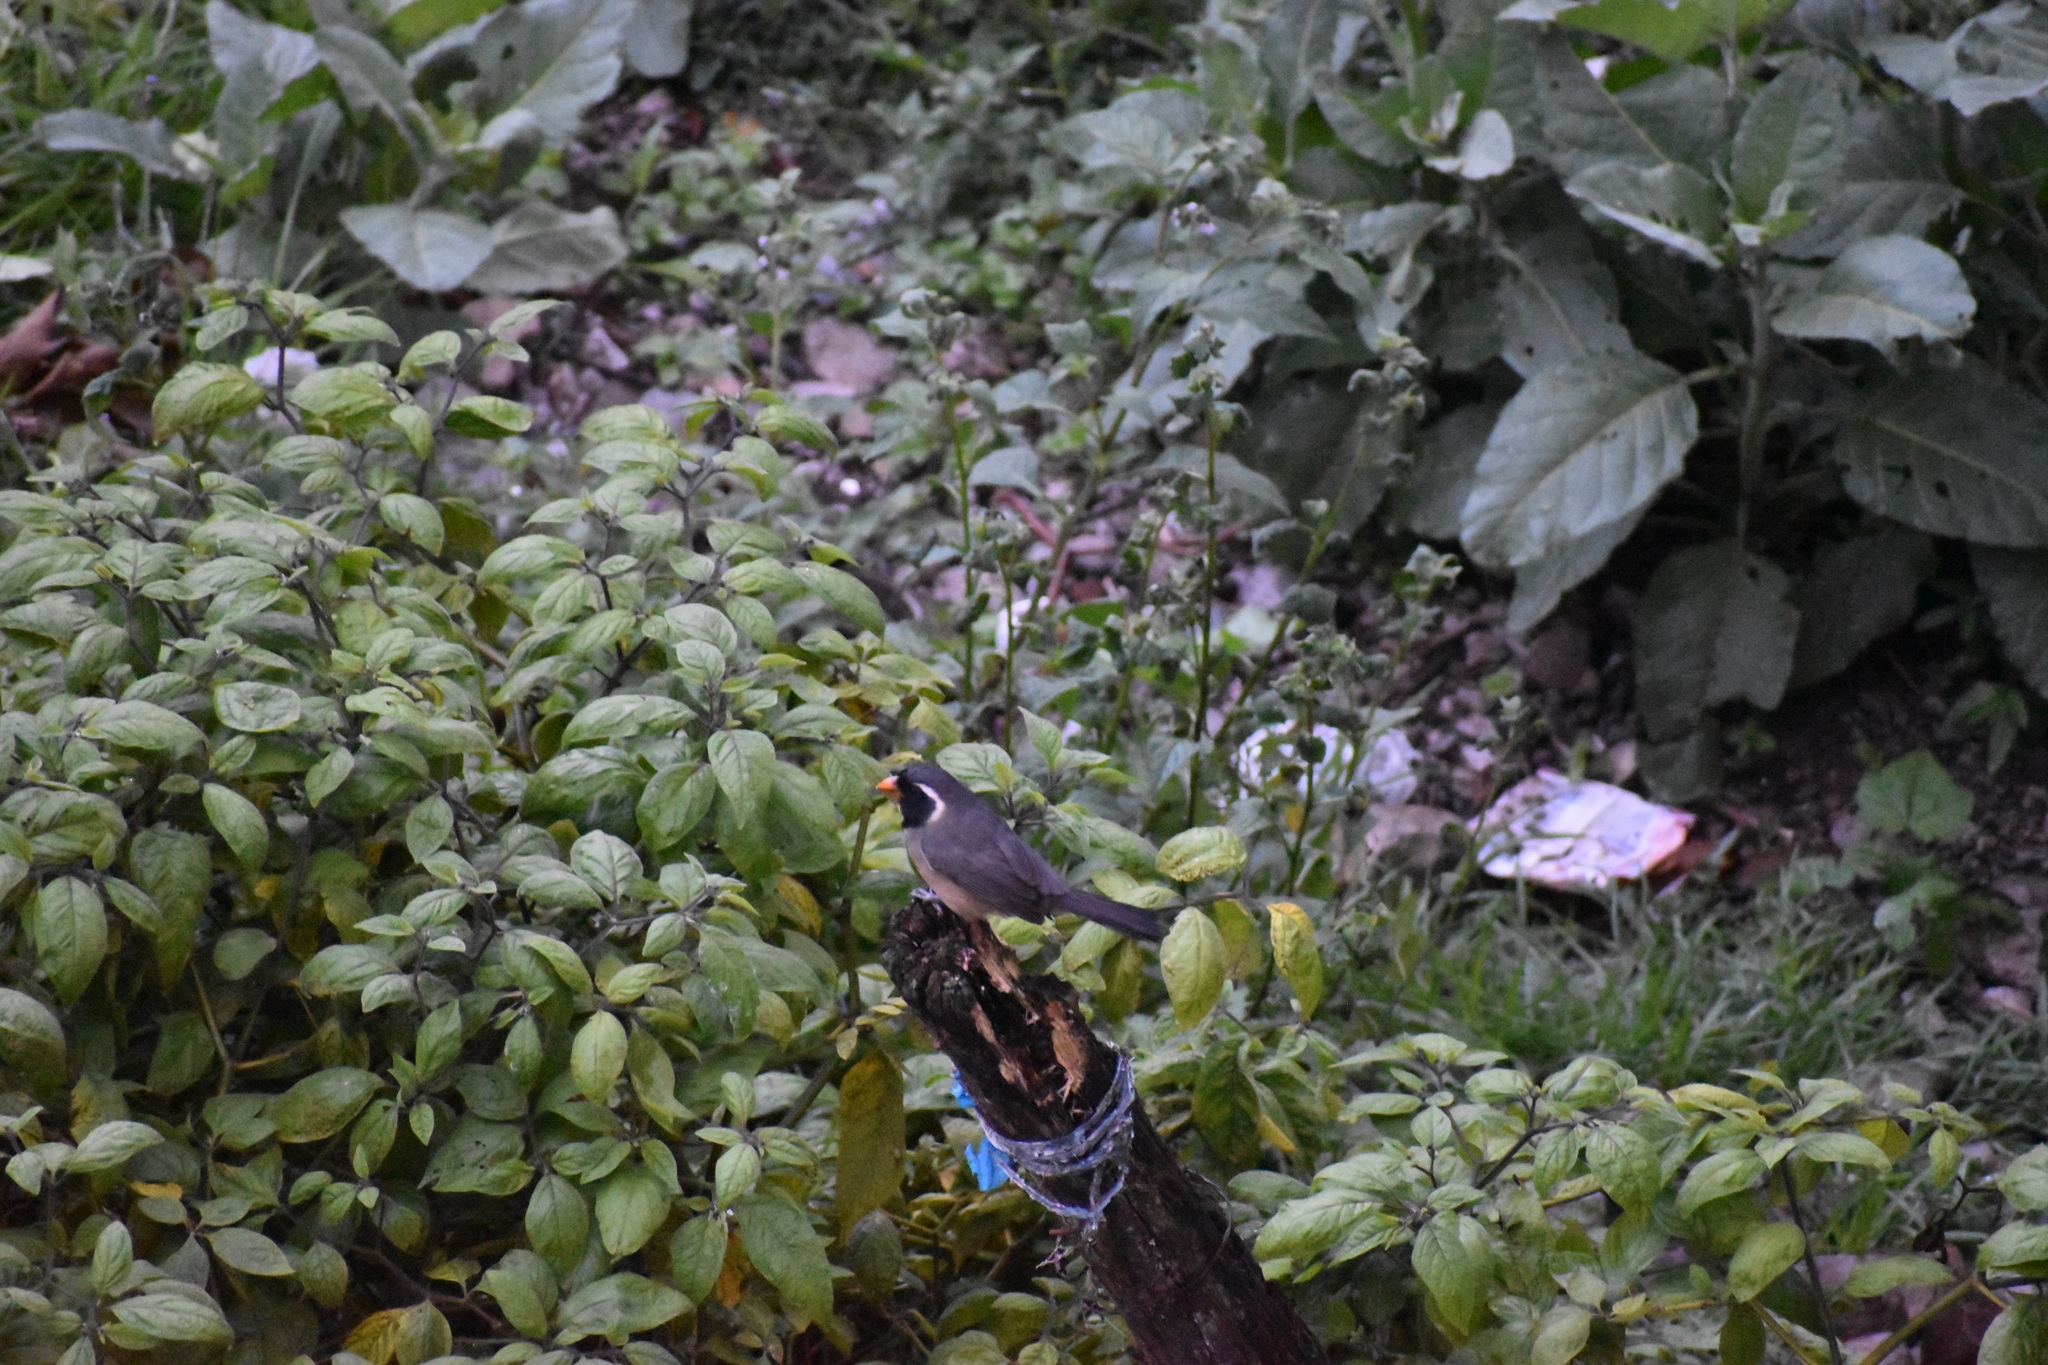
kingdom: Animalia
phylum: Chordata
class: Aves
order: Passeriformes
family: Thraupidae
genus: Saltator
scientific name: Saltator aurantiirostris
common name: Golden-billed saltator
